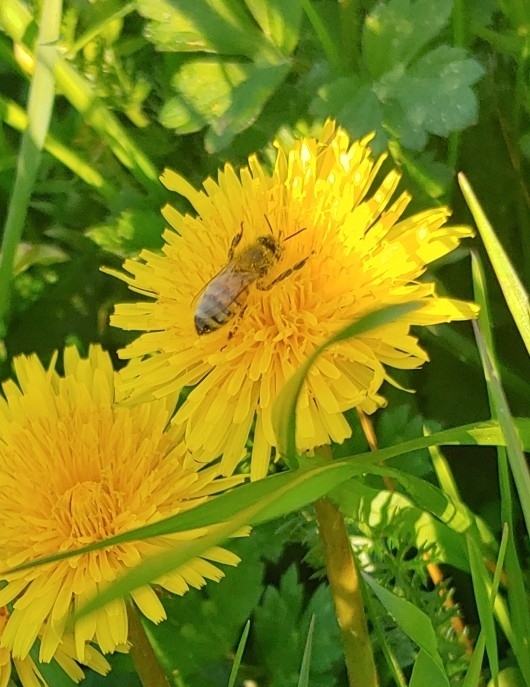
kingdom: Animalia
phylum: Arthropoda
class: Insecta
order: Hymenoptera
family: Apidae
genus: Apis
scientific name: Apis mellifera
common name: Honey bee
